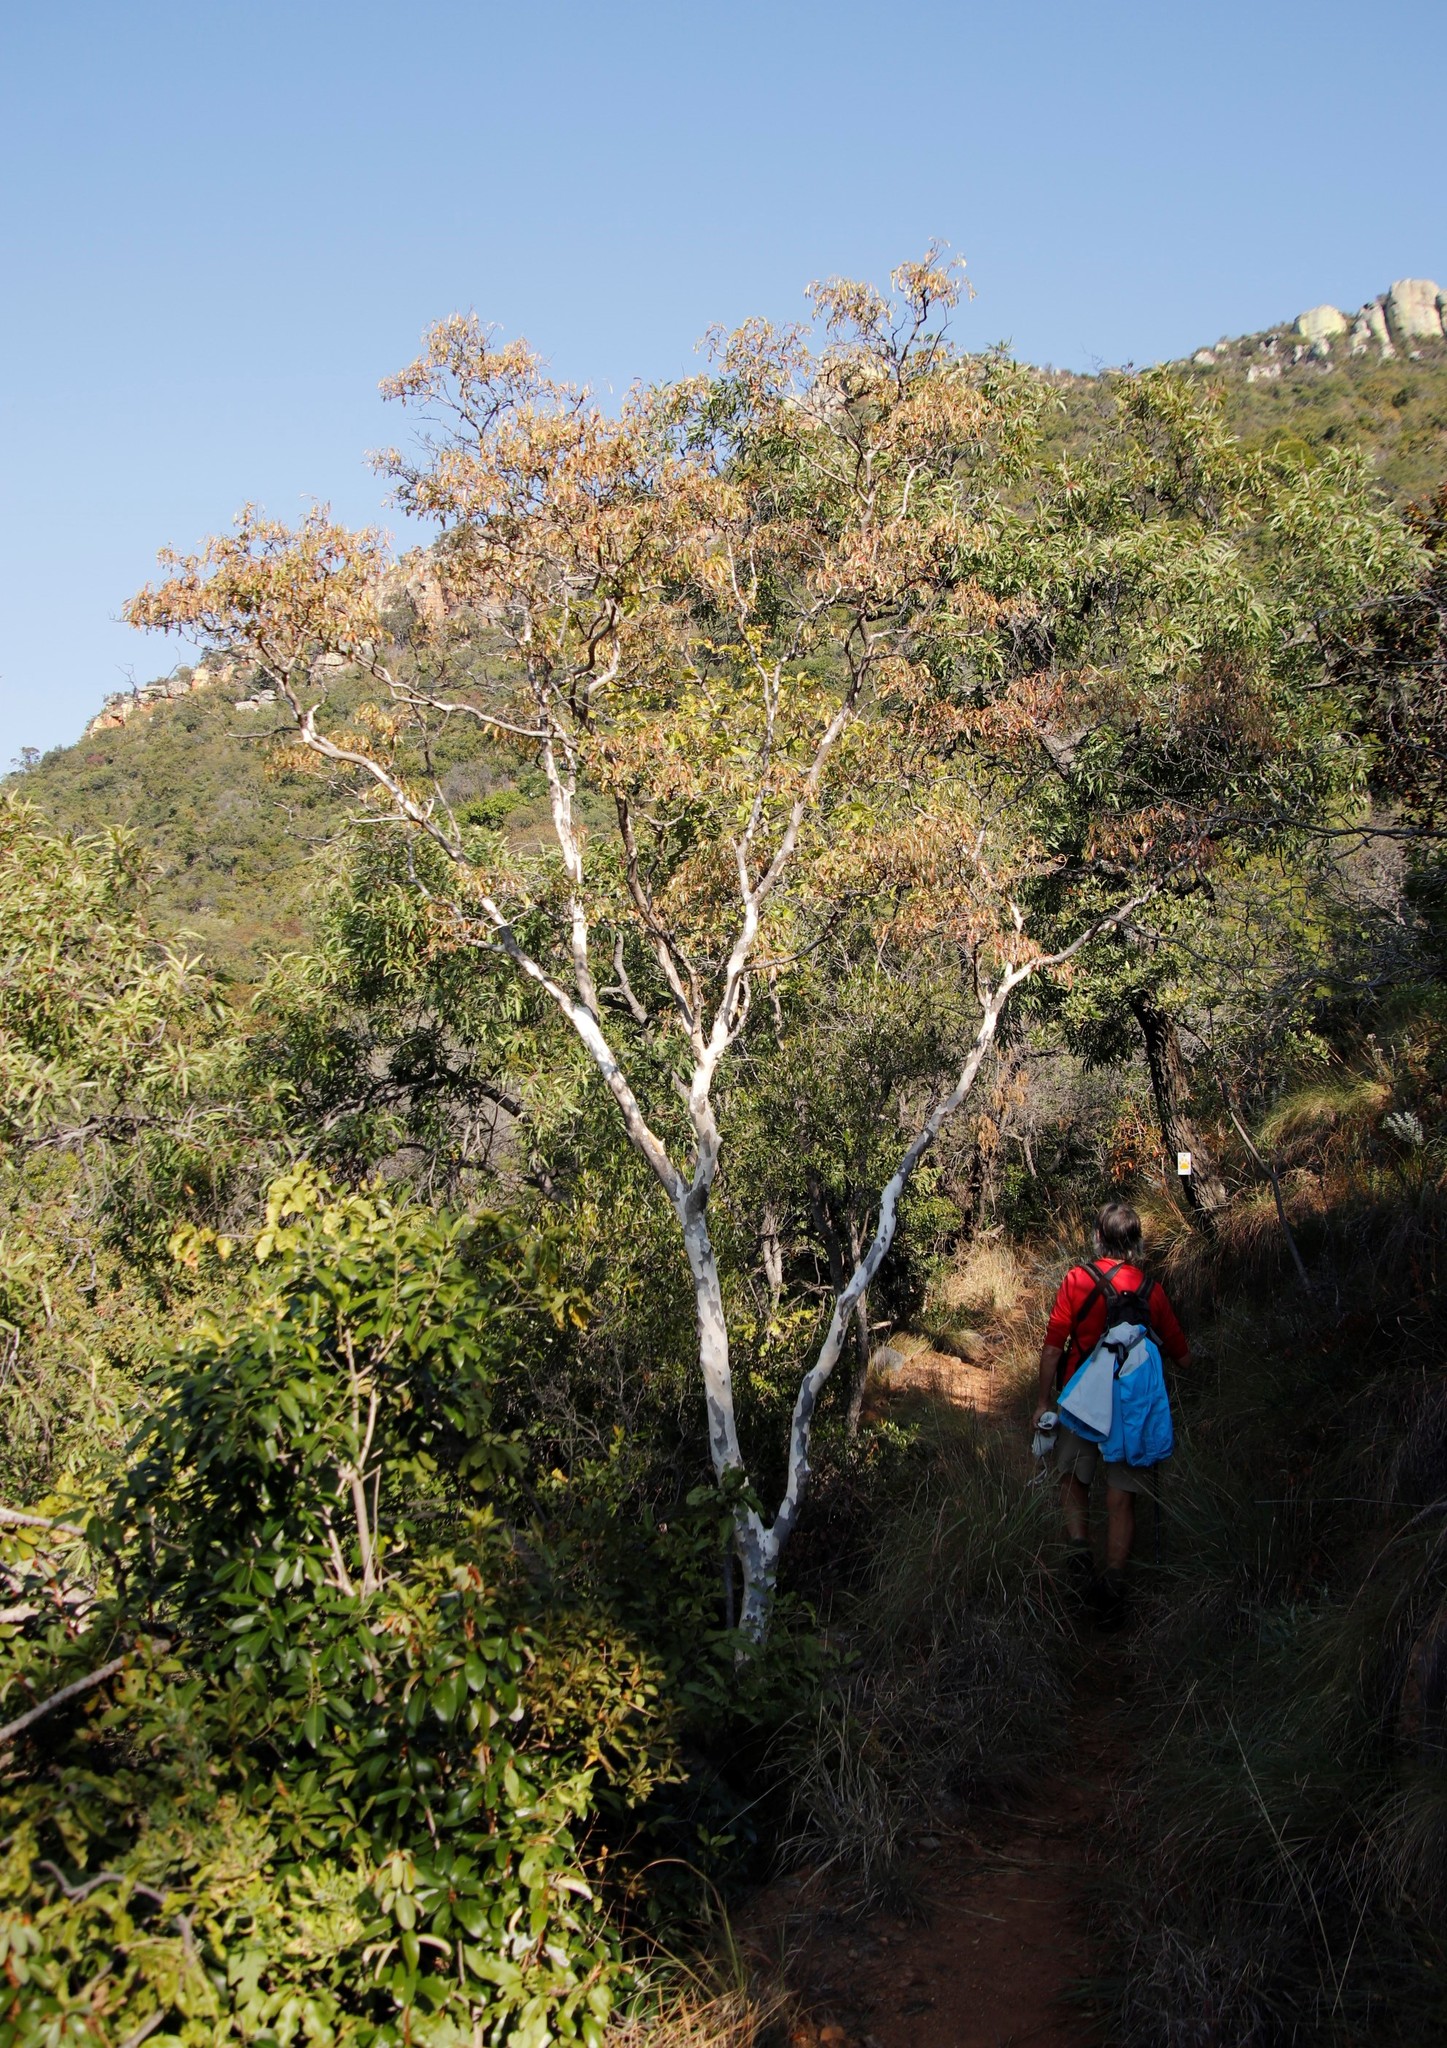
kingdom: Plantae
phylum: Tracheophyta
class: Magnoliopsida
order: Myrtales
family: Myrtaceae
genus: Heteropyxis
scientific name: Heteropyxis natalensis
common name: Lavender tree
